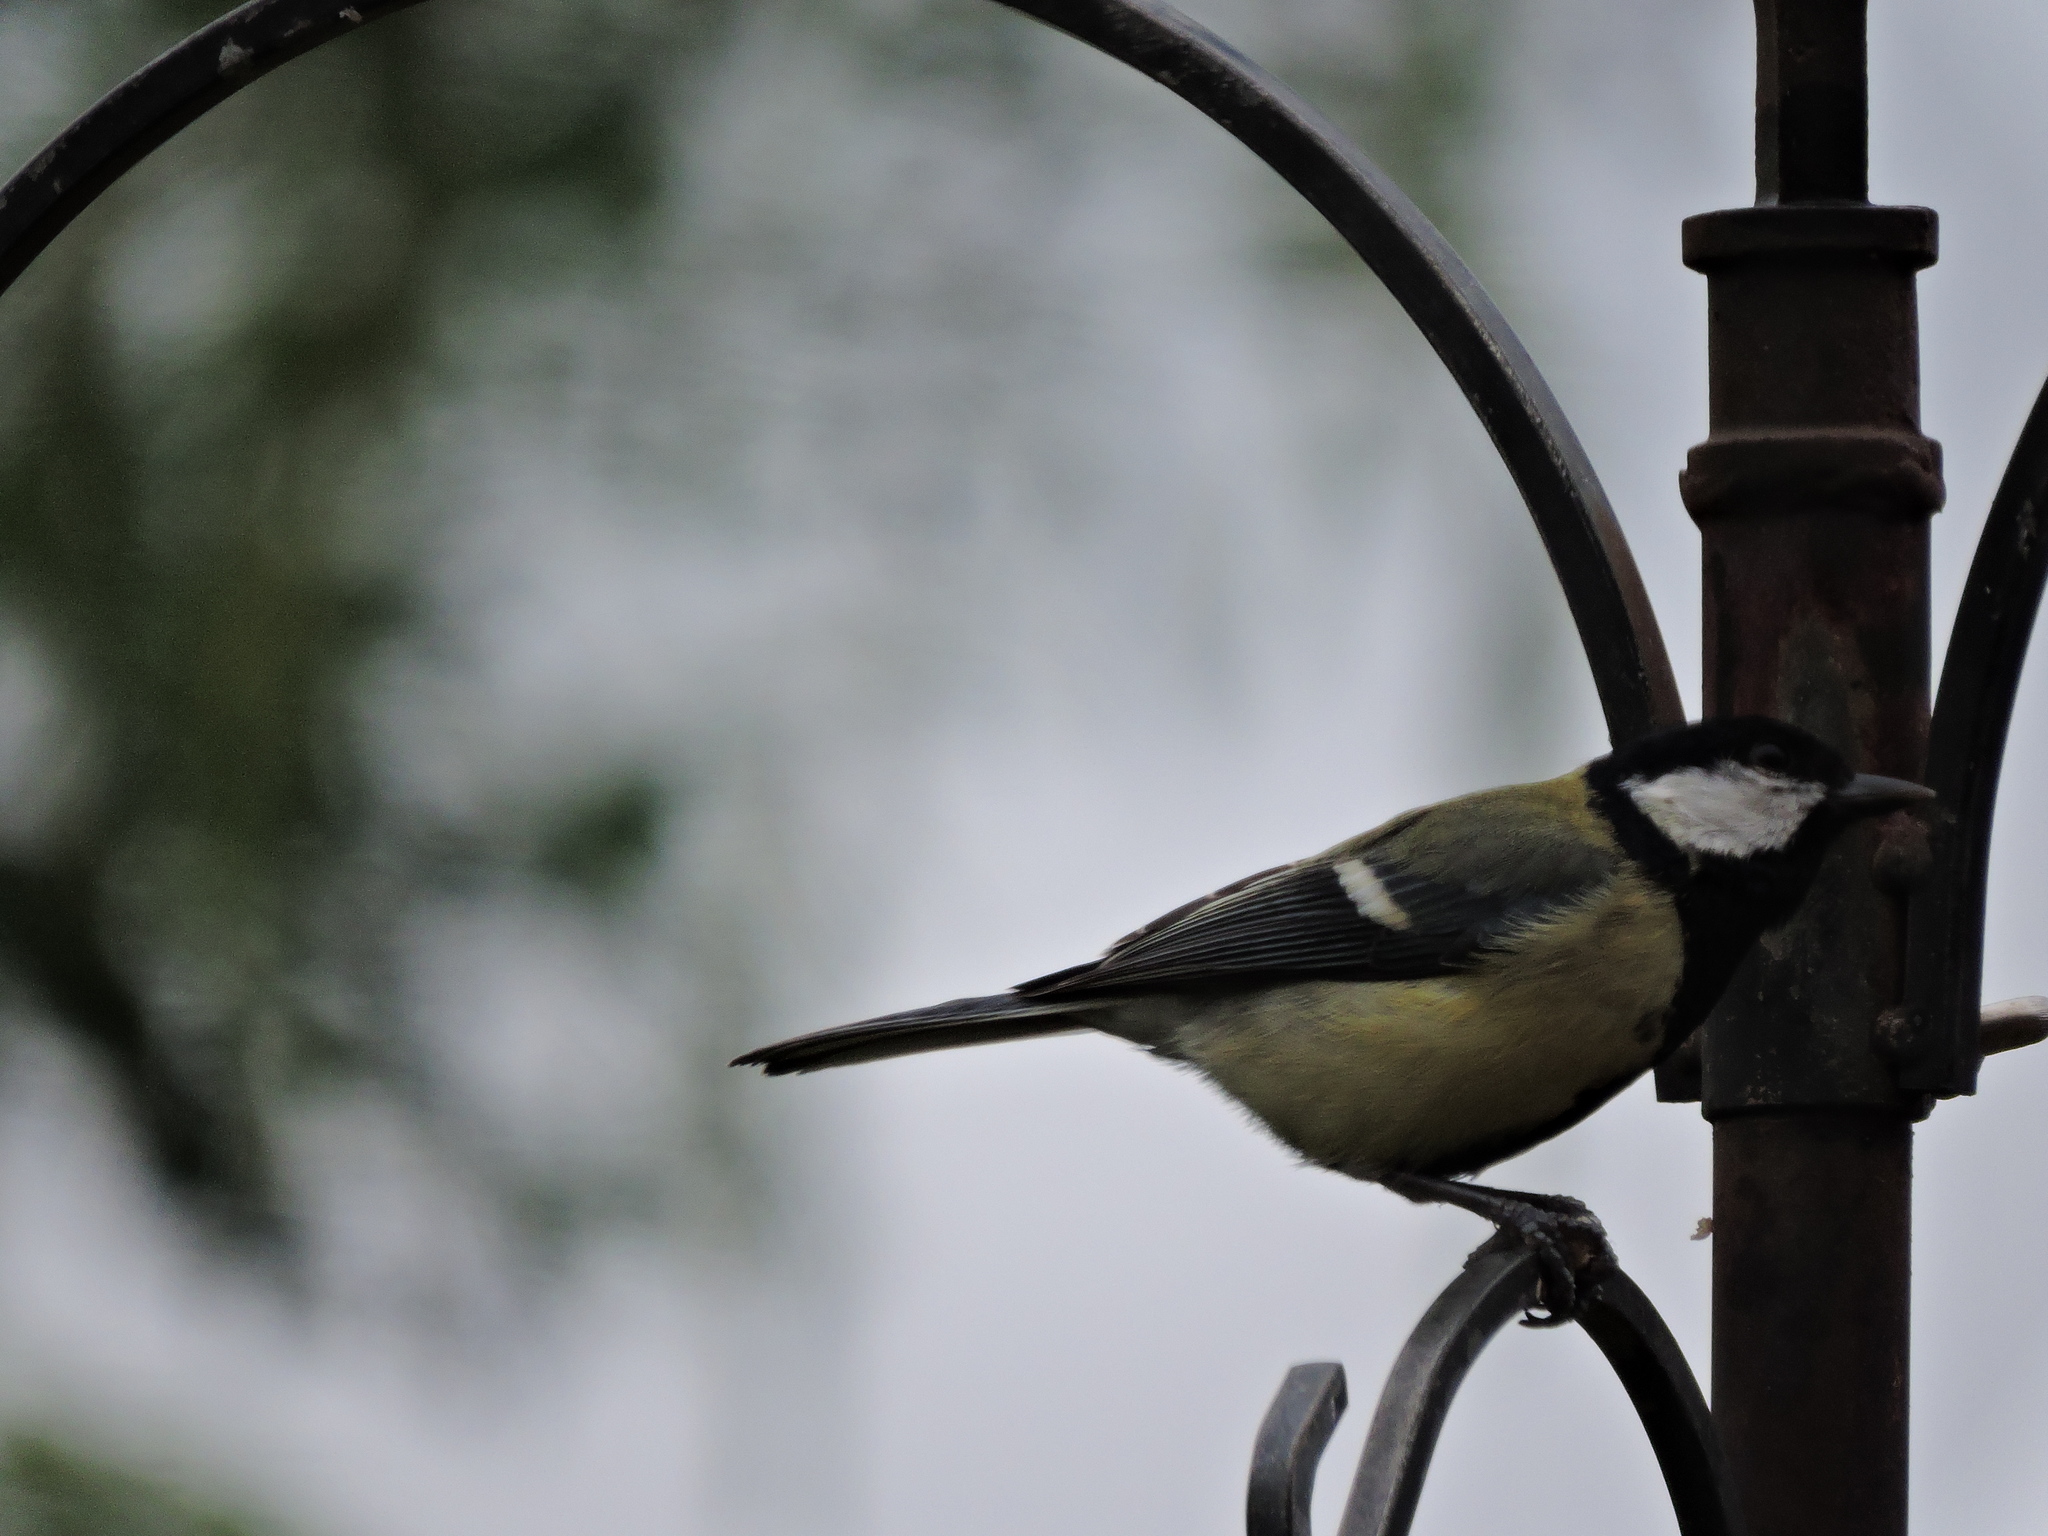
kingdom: Animalia
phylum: Chordata
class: Aves
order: Passeriformes
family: Paridae
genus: Parus
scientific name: Parus major
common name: Great tit
